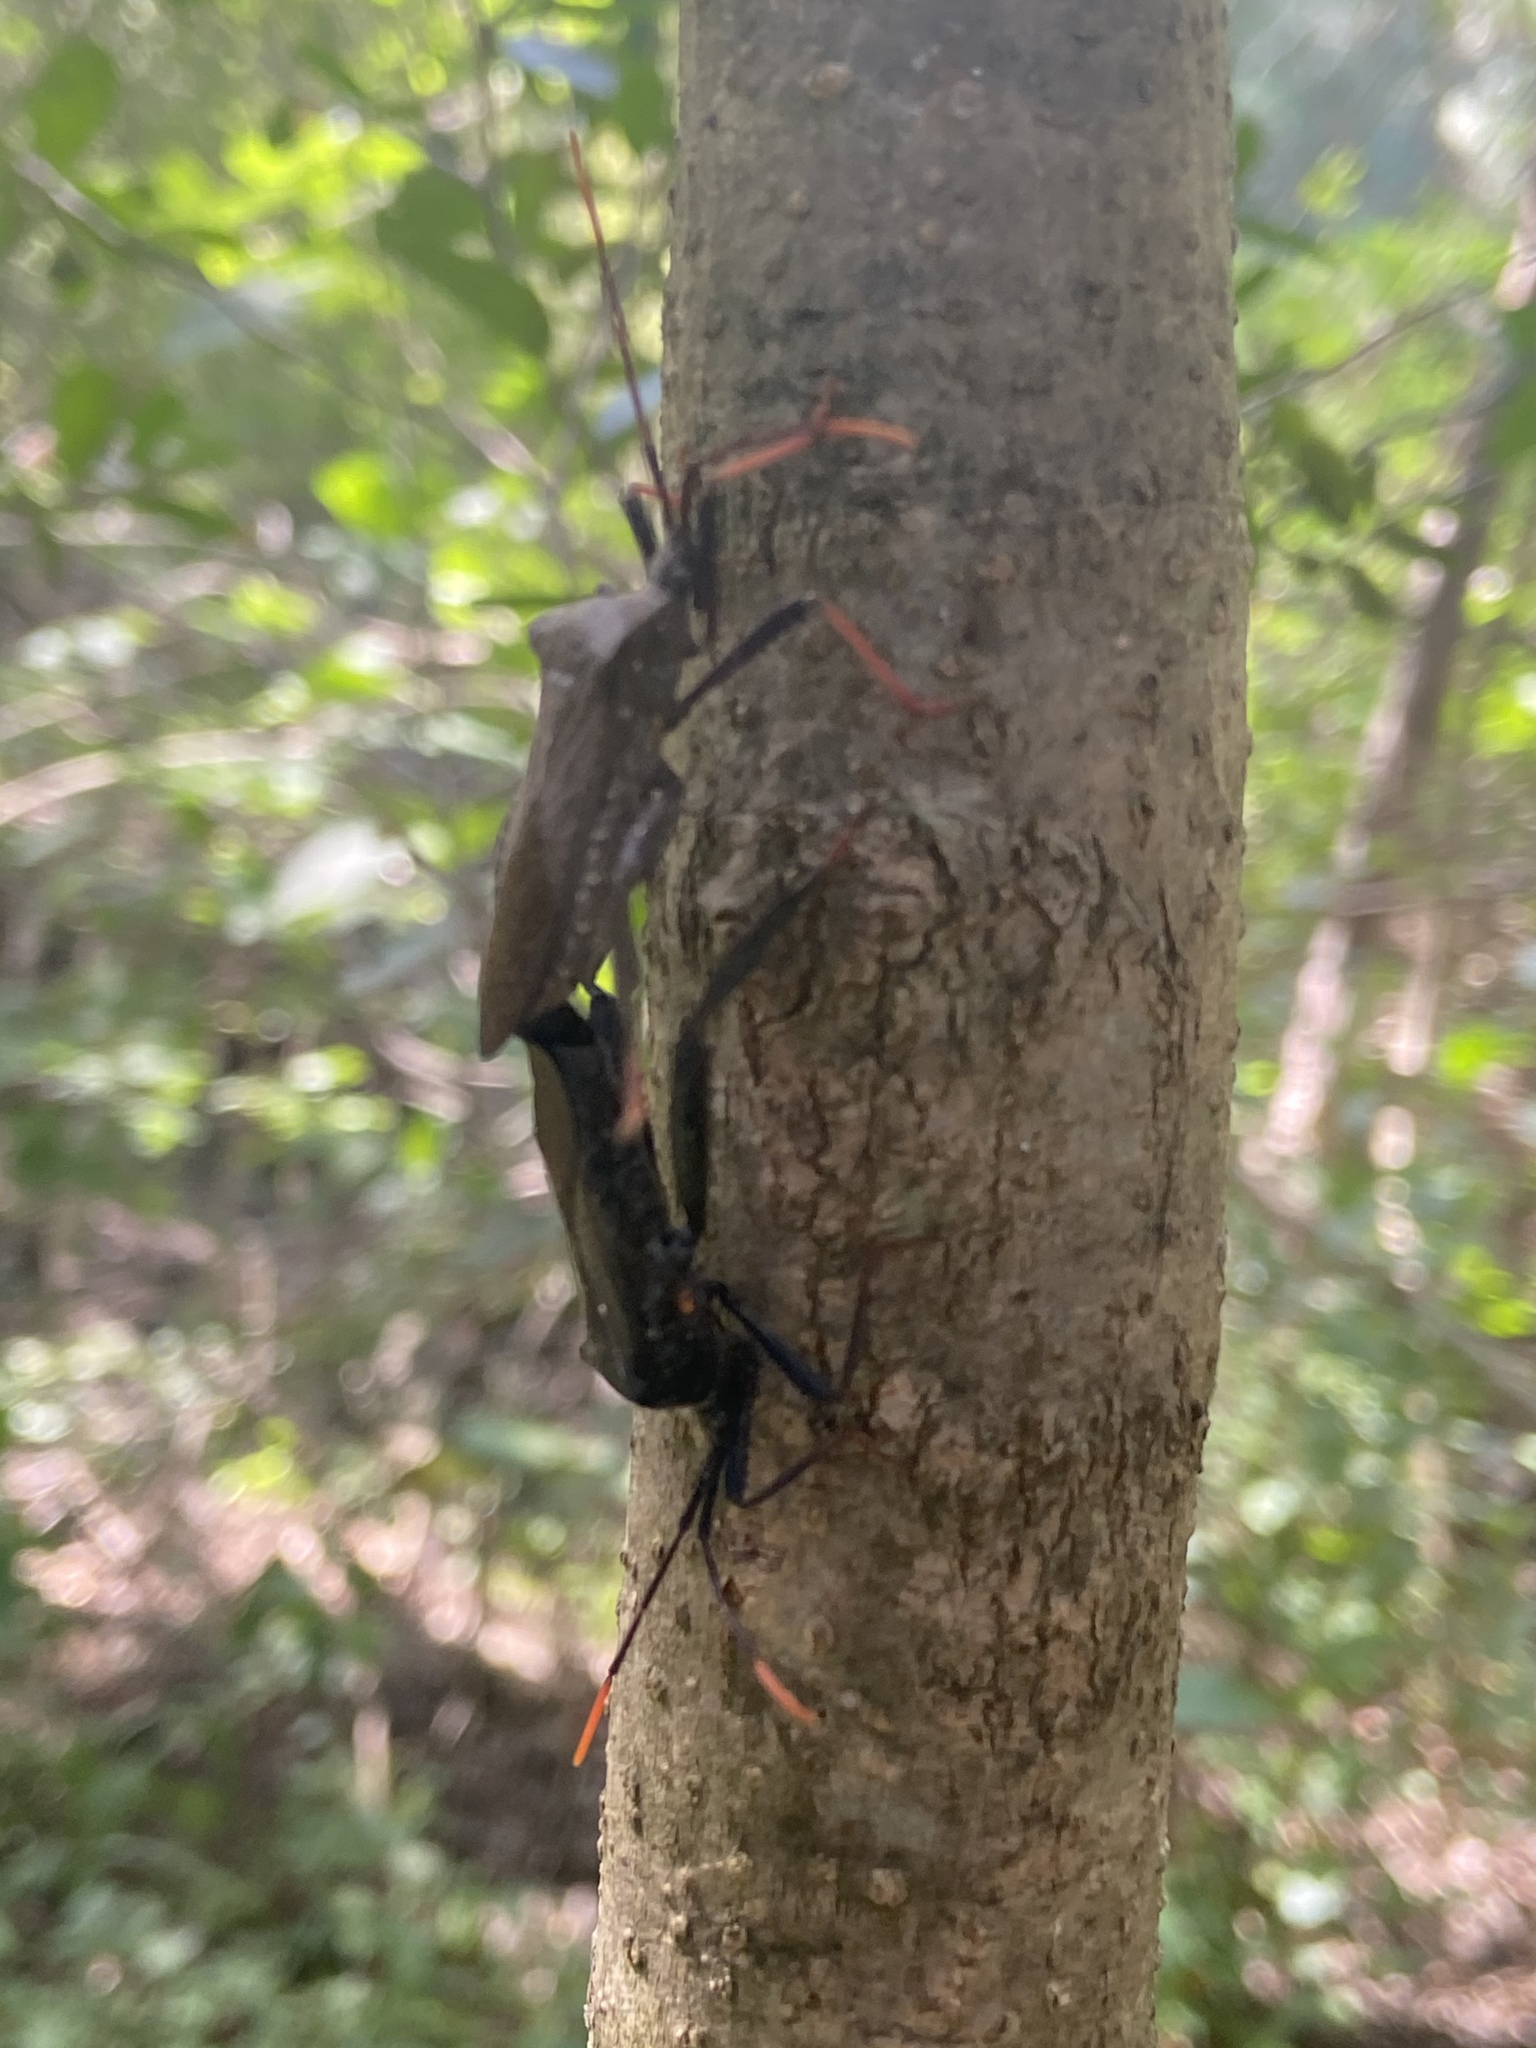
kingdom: Animalia
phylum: Arthropoda
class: Insecta
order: Hemiptera
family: Coreidae
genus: Acanthocephala
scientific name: Acanthocephala thomasi
